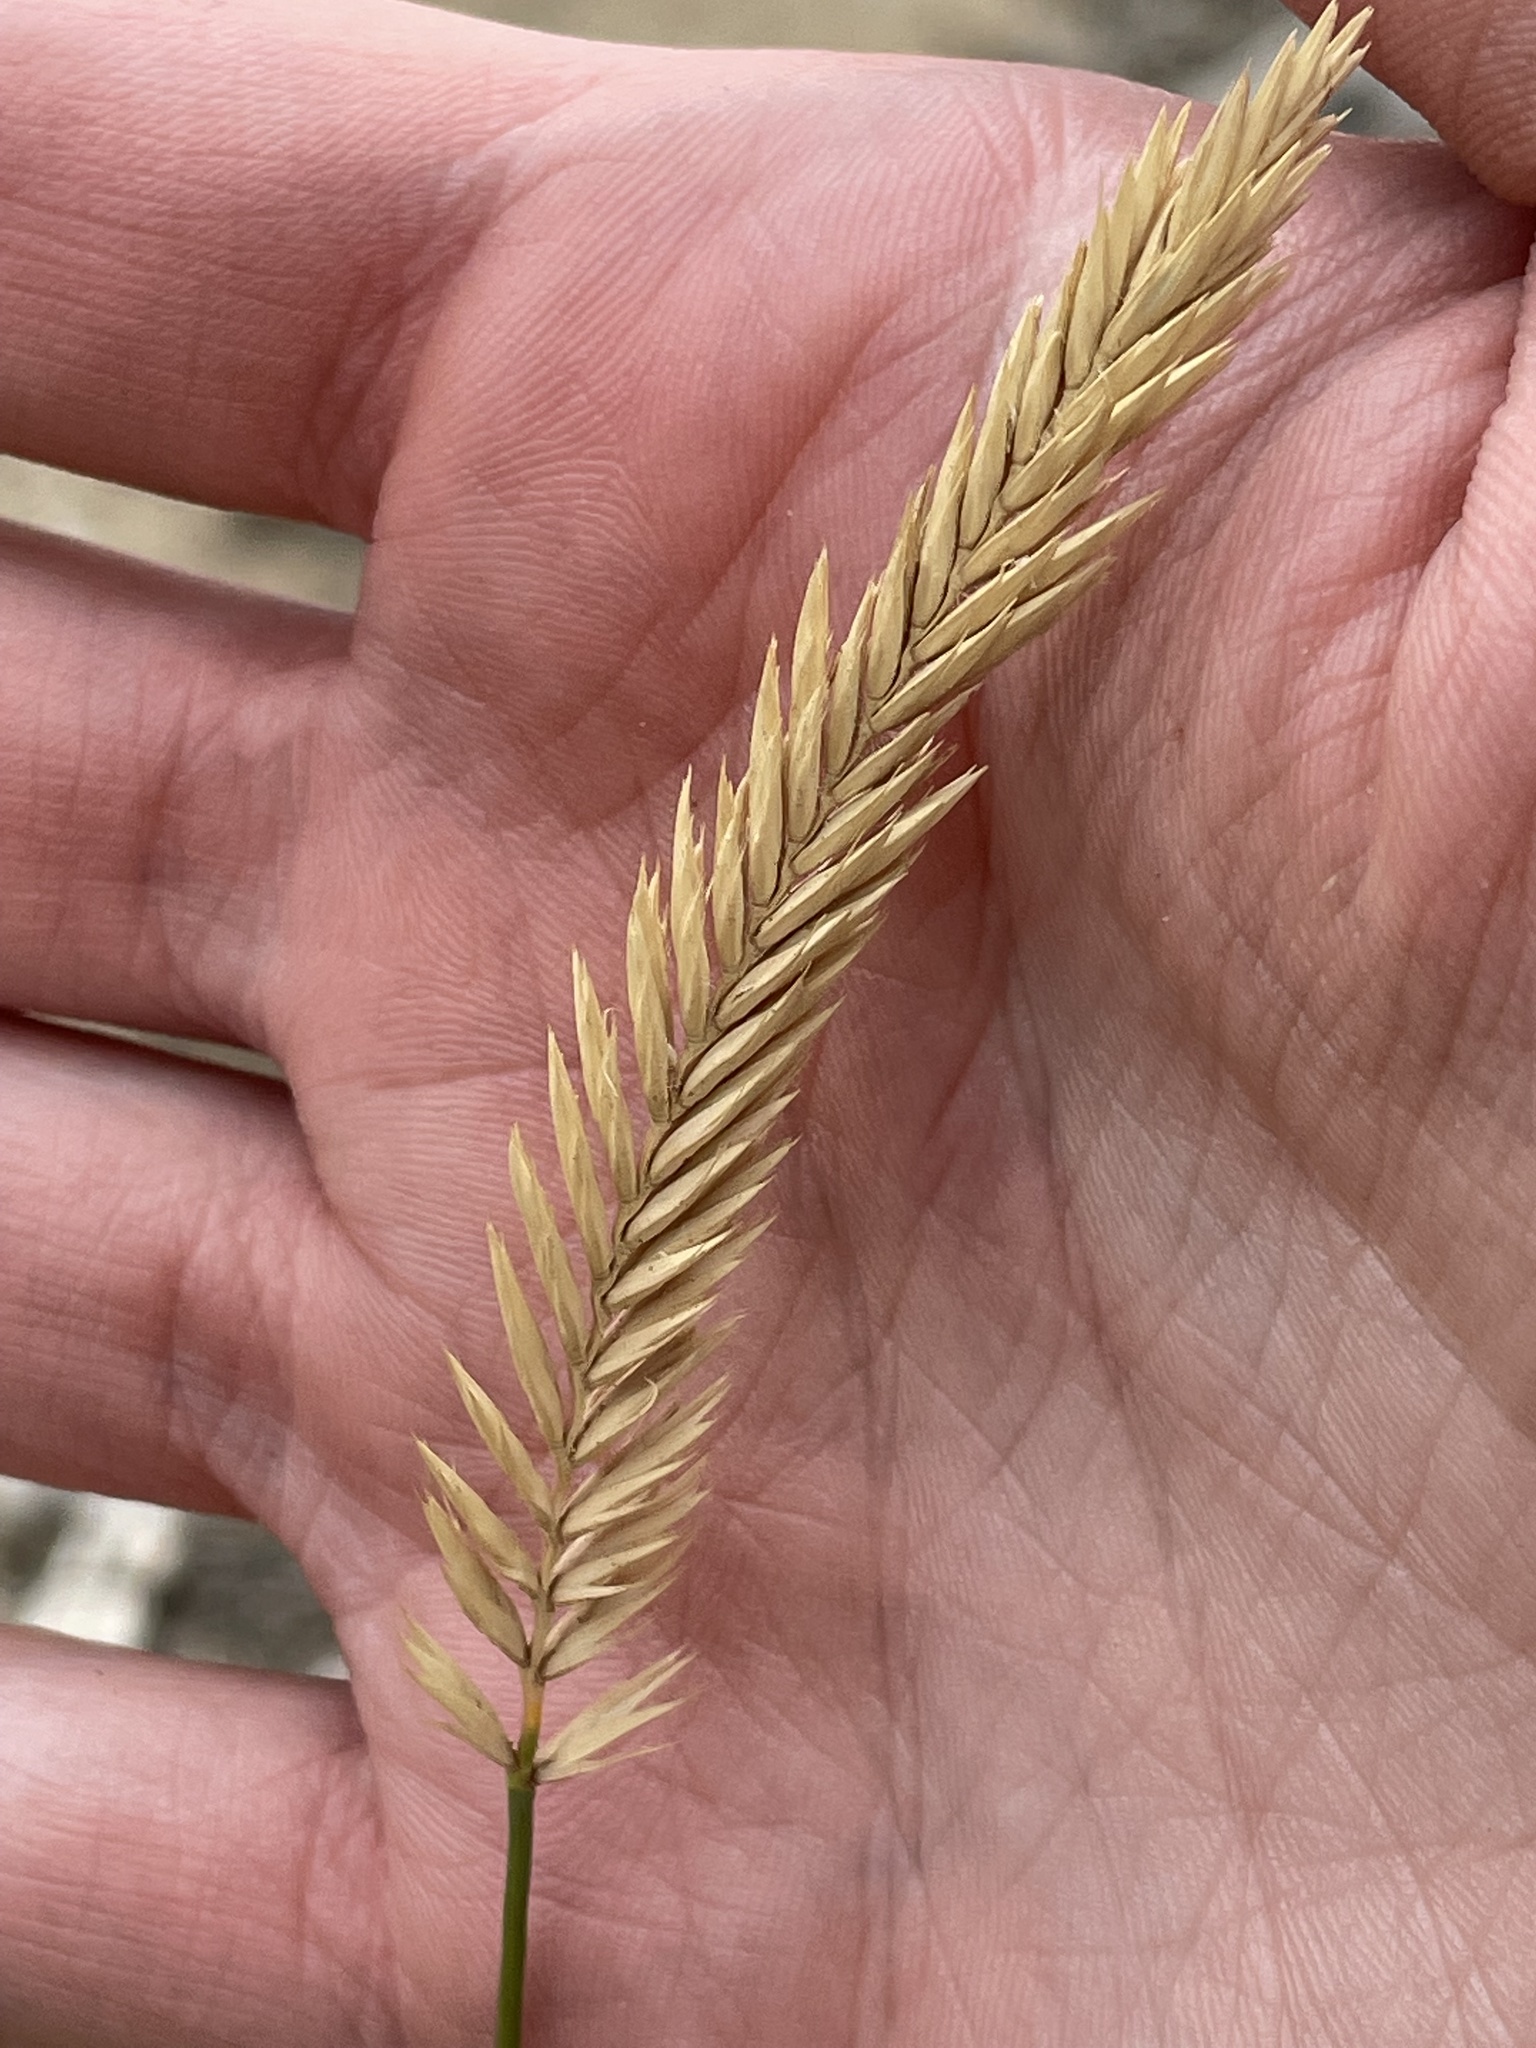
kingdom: Plantae
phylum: Tracheophyta
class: Liliopsida
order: Poales
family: Poaceae
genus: Agropyron
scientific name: Agropyron cristatum
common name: Crested wheatgrass
